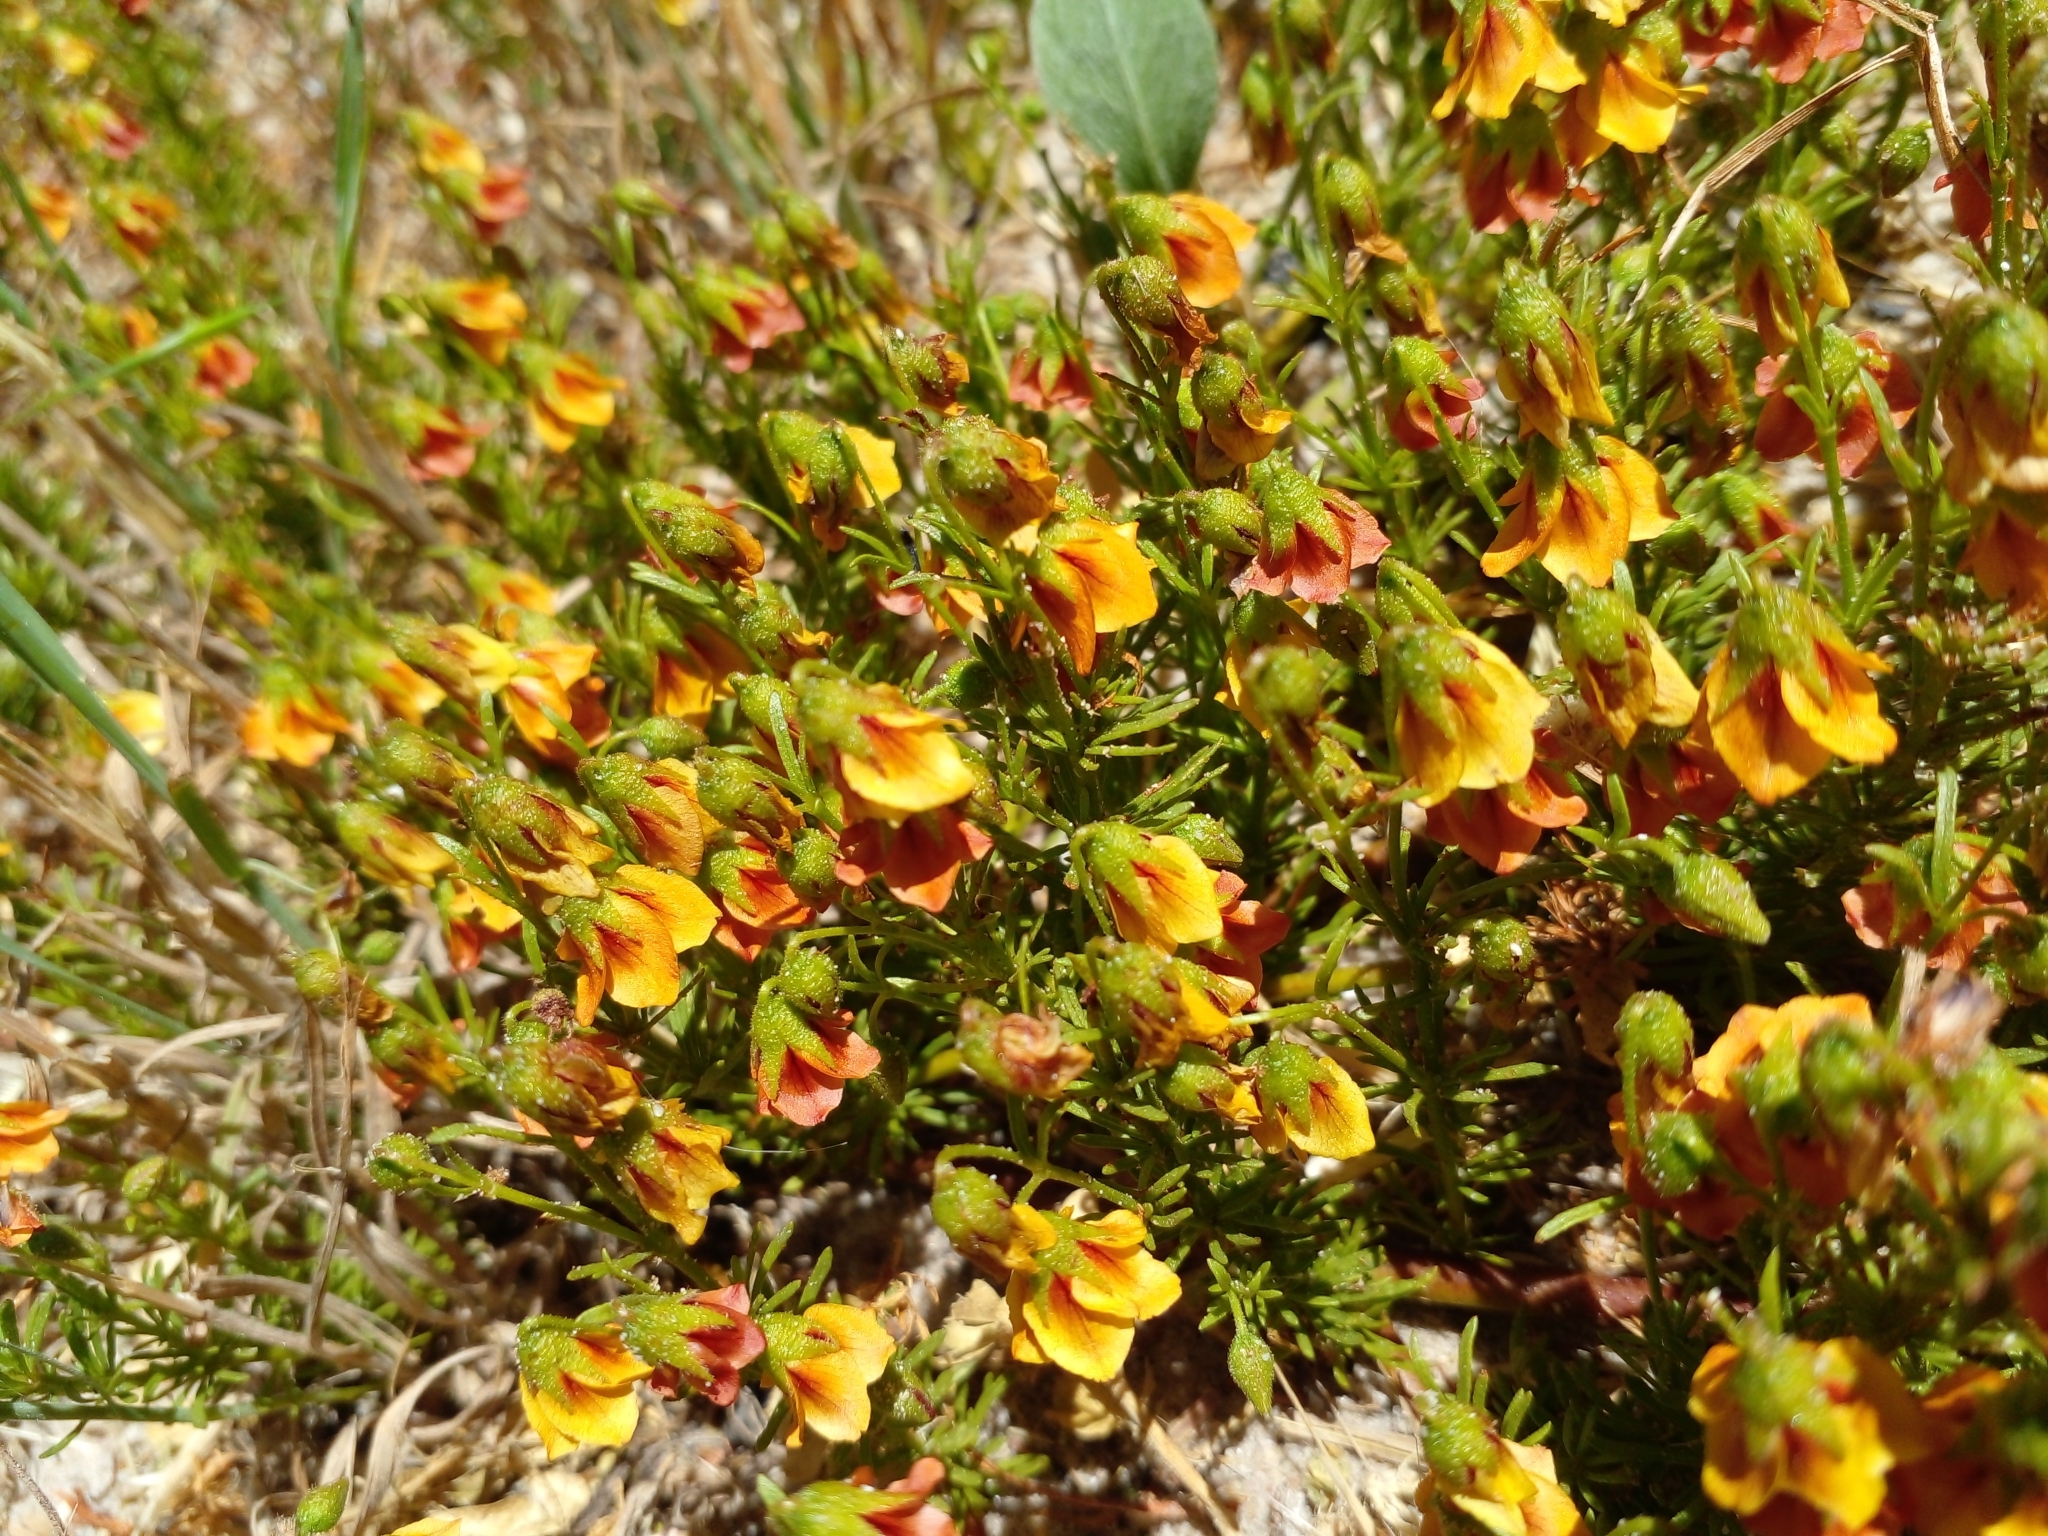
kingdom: Plantae
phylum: Tracheophyta
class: Magnoliopsida
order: Malvales
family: Malvaceae
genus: Hermannia
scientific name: Hermannia
